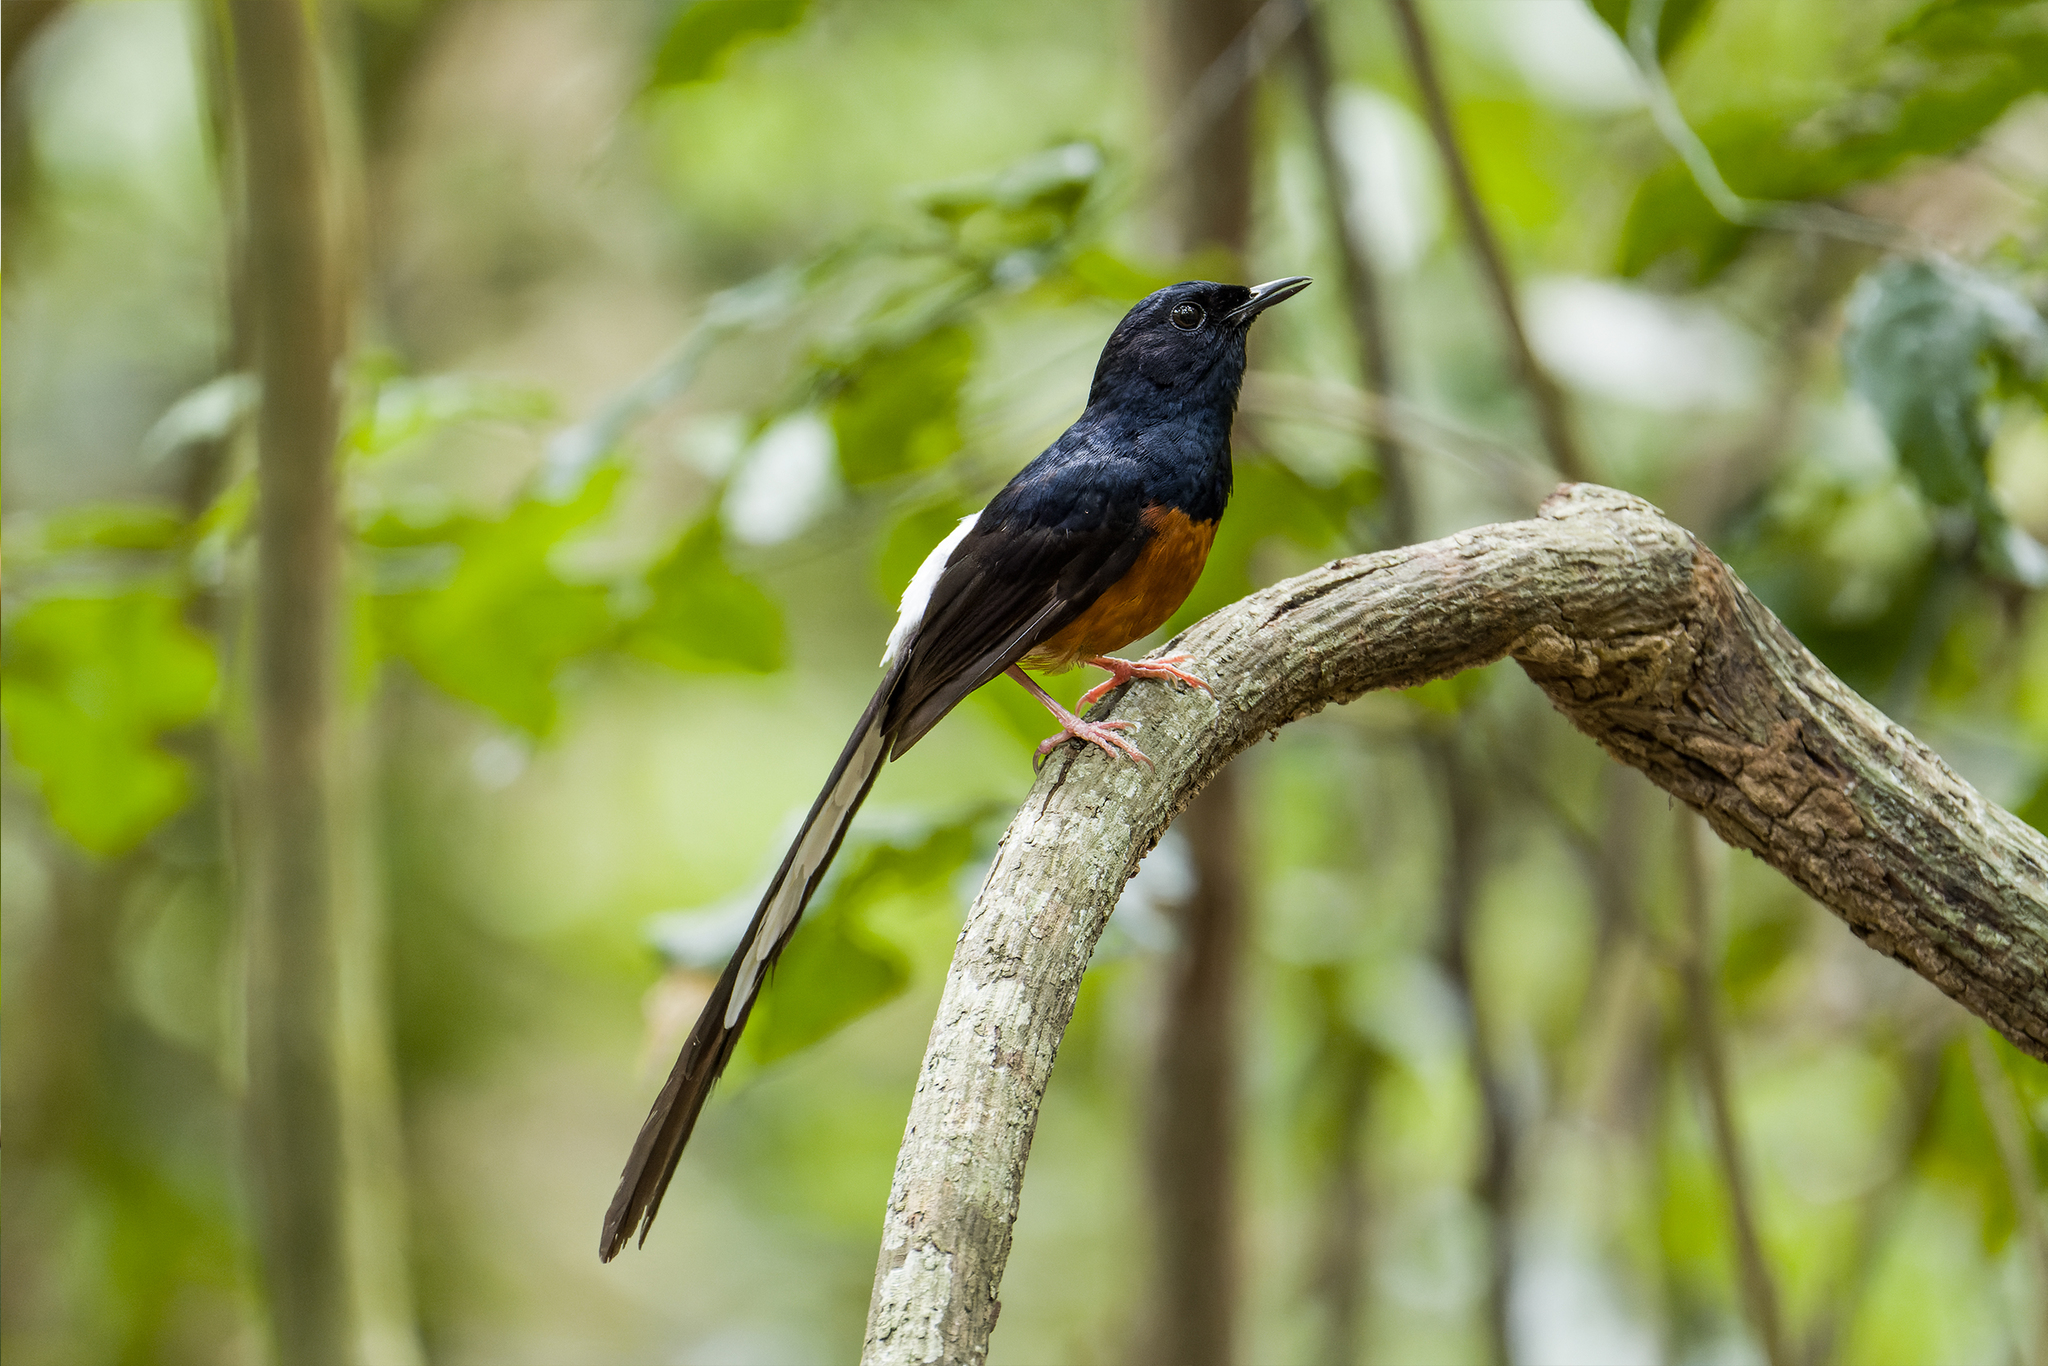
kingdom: Animalia
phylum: Chordata
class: Aves
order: Passeriformes
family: Muscicapidae
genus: Copsychus
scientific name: Copsychus malabaricus
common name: White-rumped shama
